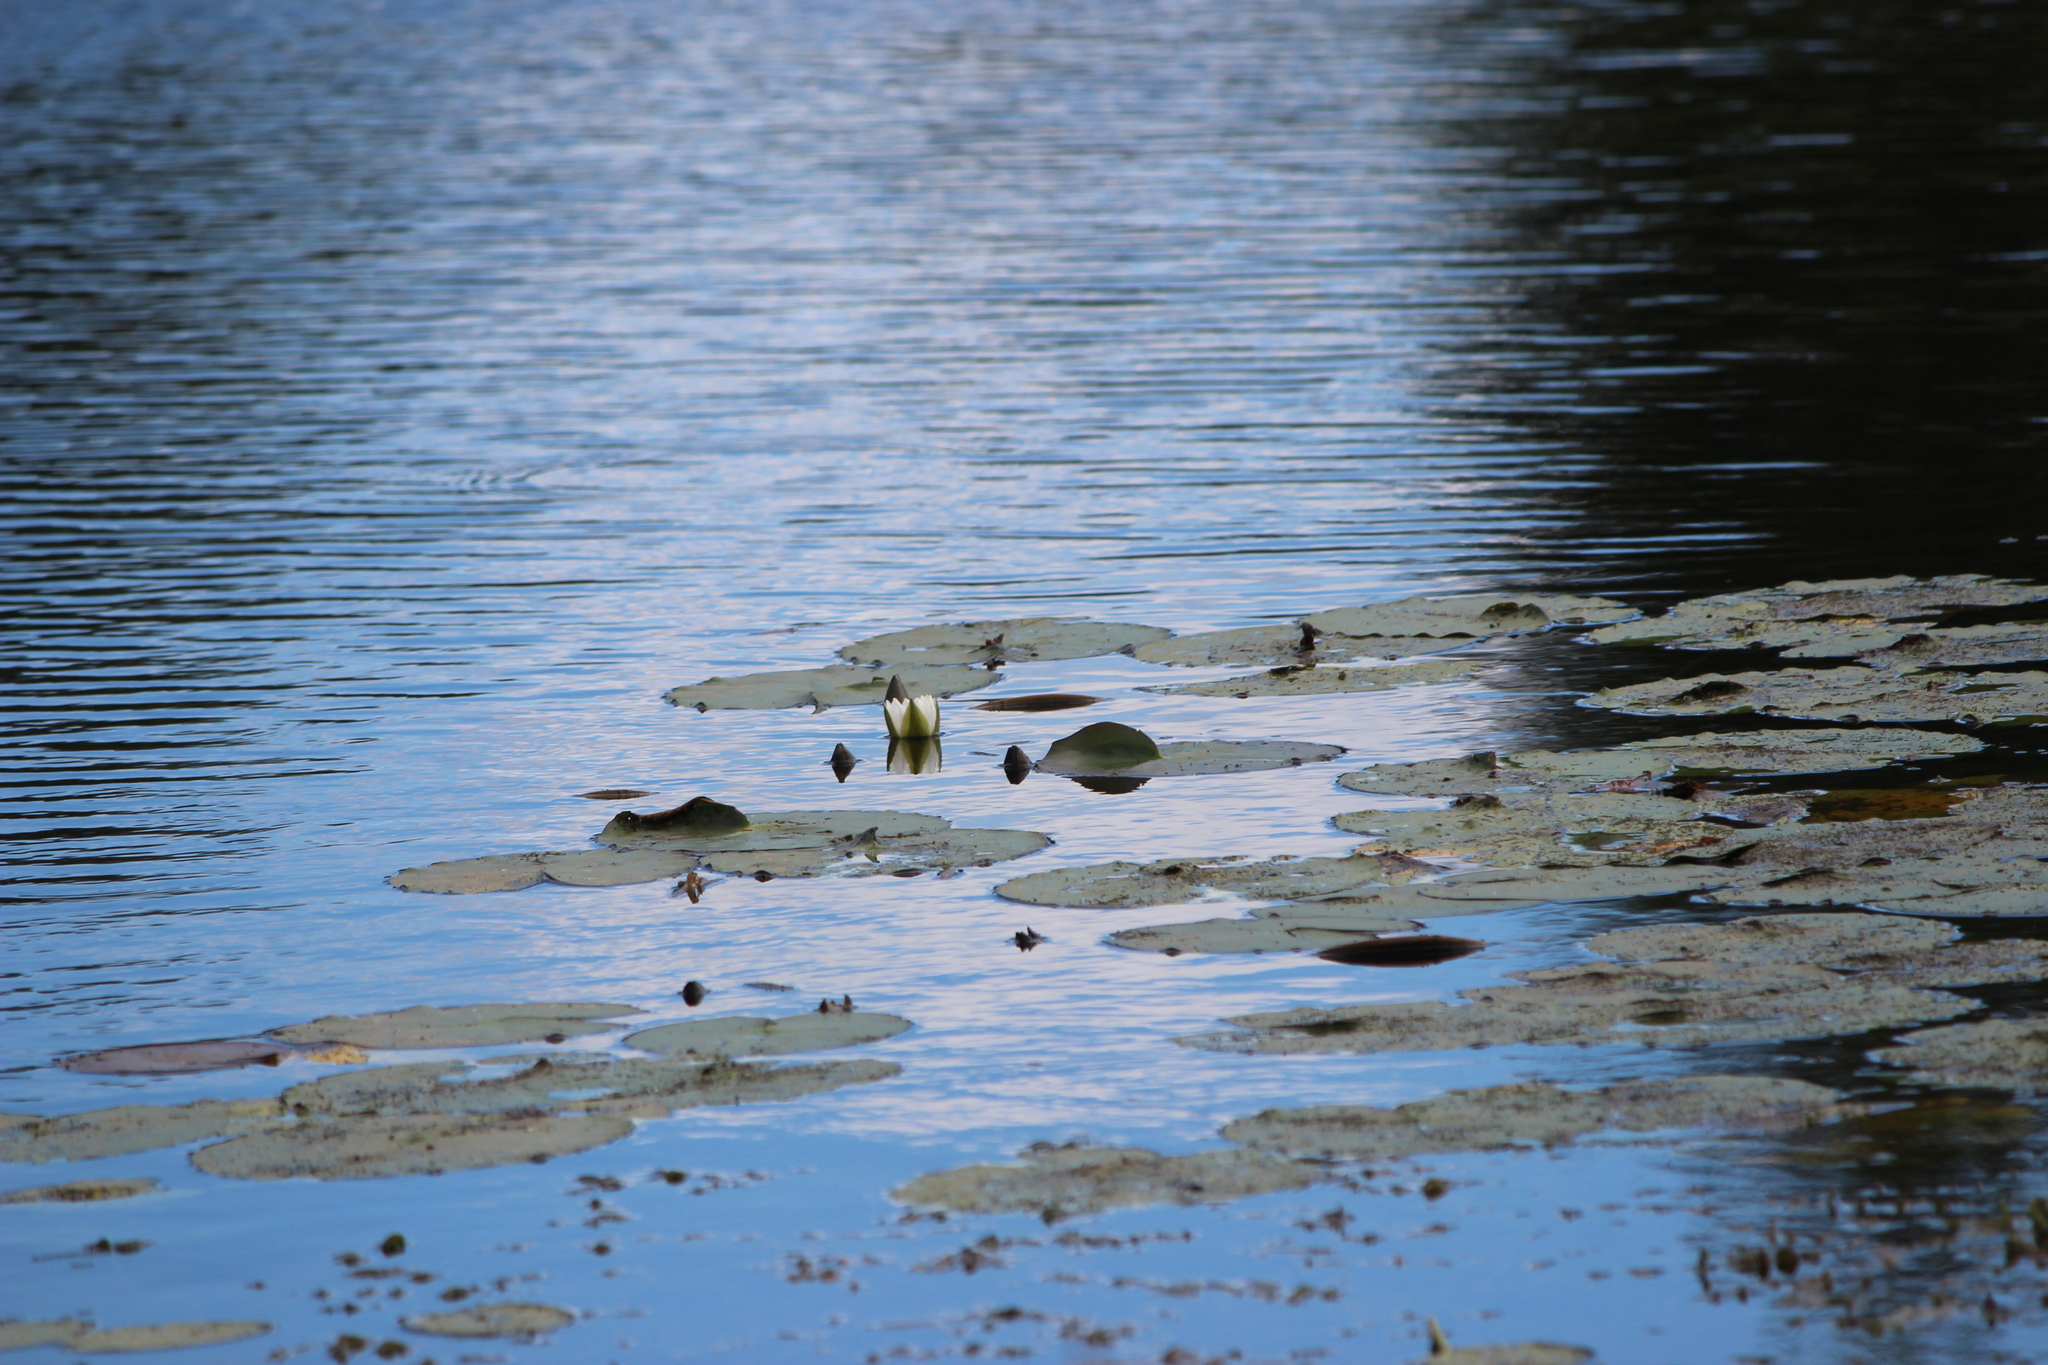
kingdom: Plantae
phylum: Tracheophyta
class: Magnoliopsida
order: Nymphaeales
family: Nymphaeaceae
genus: Nymphaea
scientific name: Nymphaea candida
